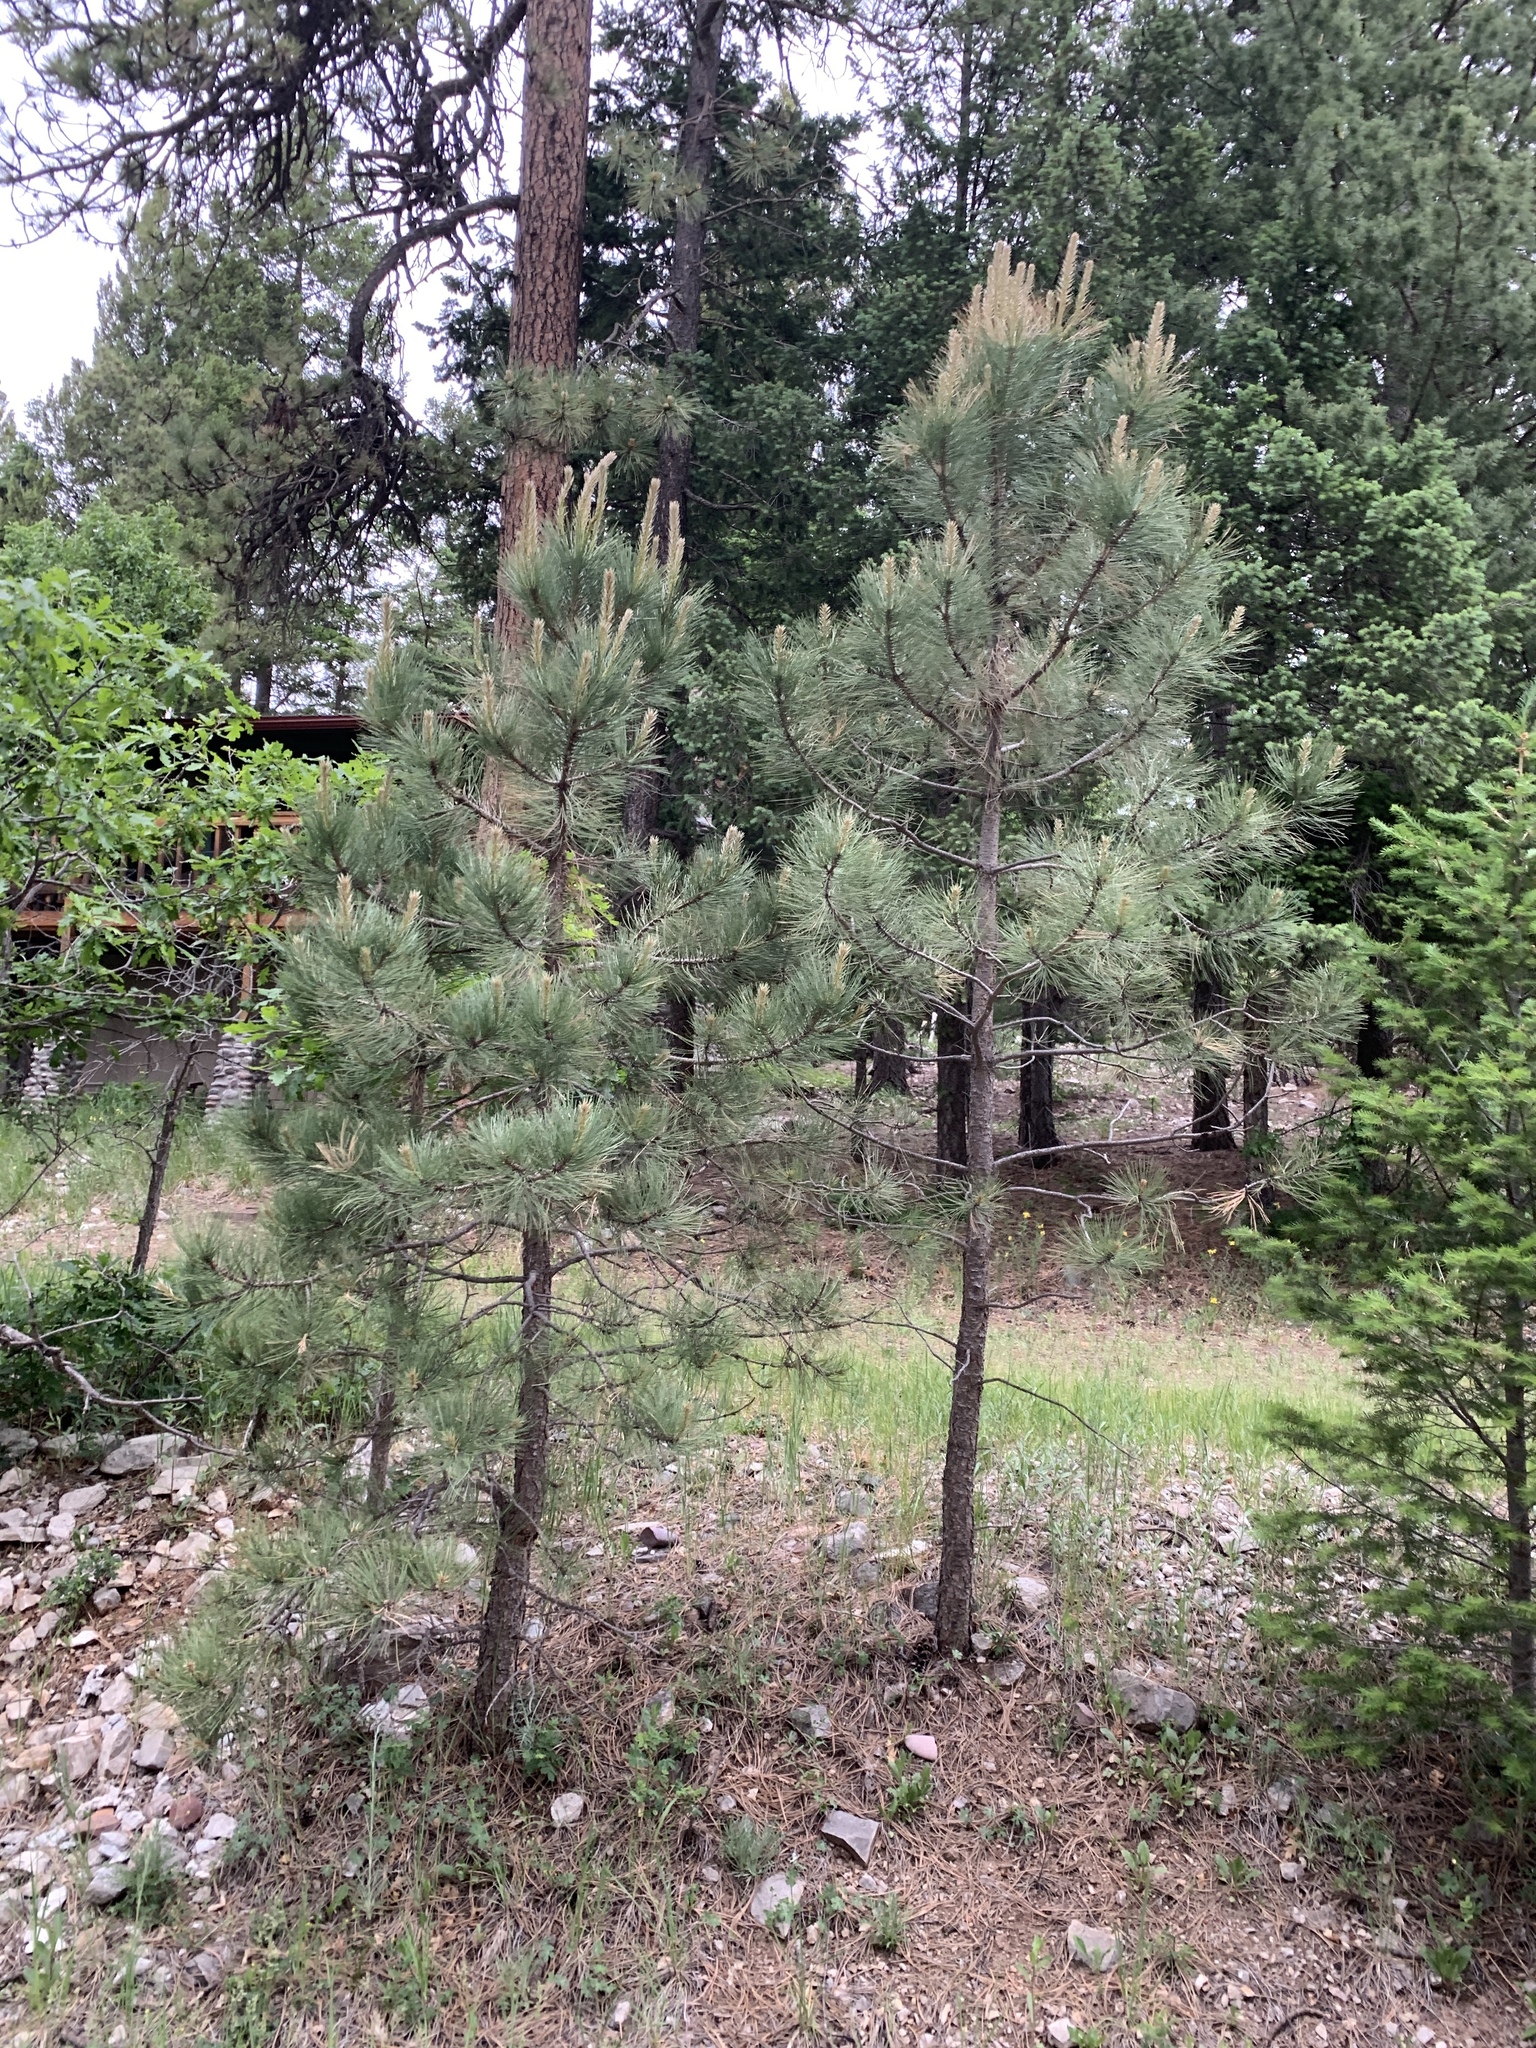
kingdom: Plantae
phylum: Tracheophyta
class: Pinopsida
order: Pinales
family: Pinaceae
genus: Pinus
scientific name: Pinus ponderosa
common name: Western yellow-pine
